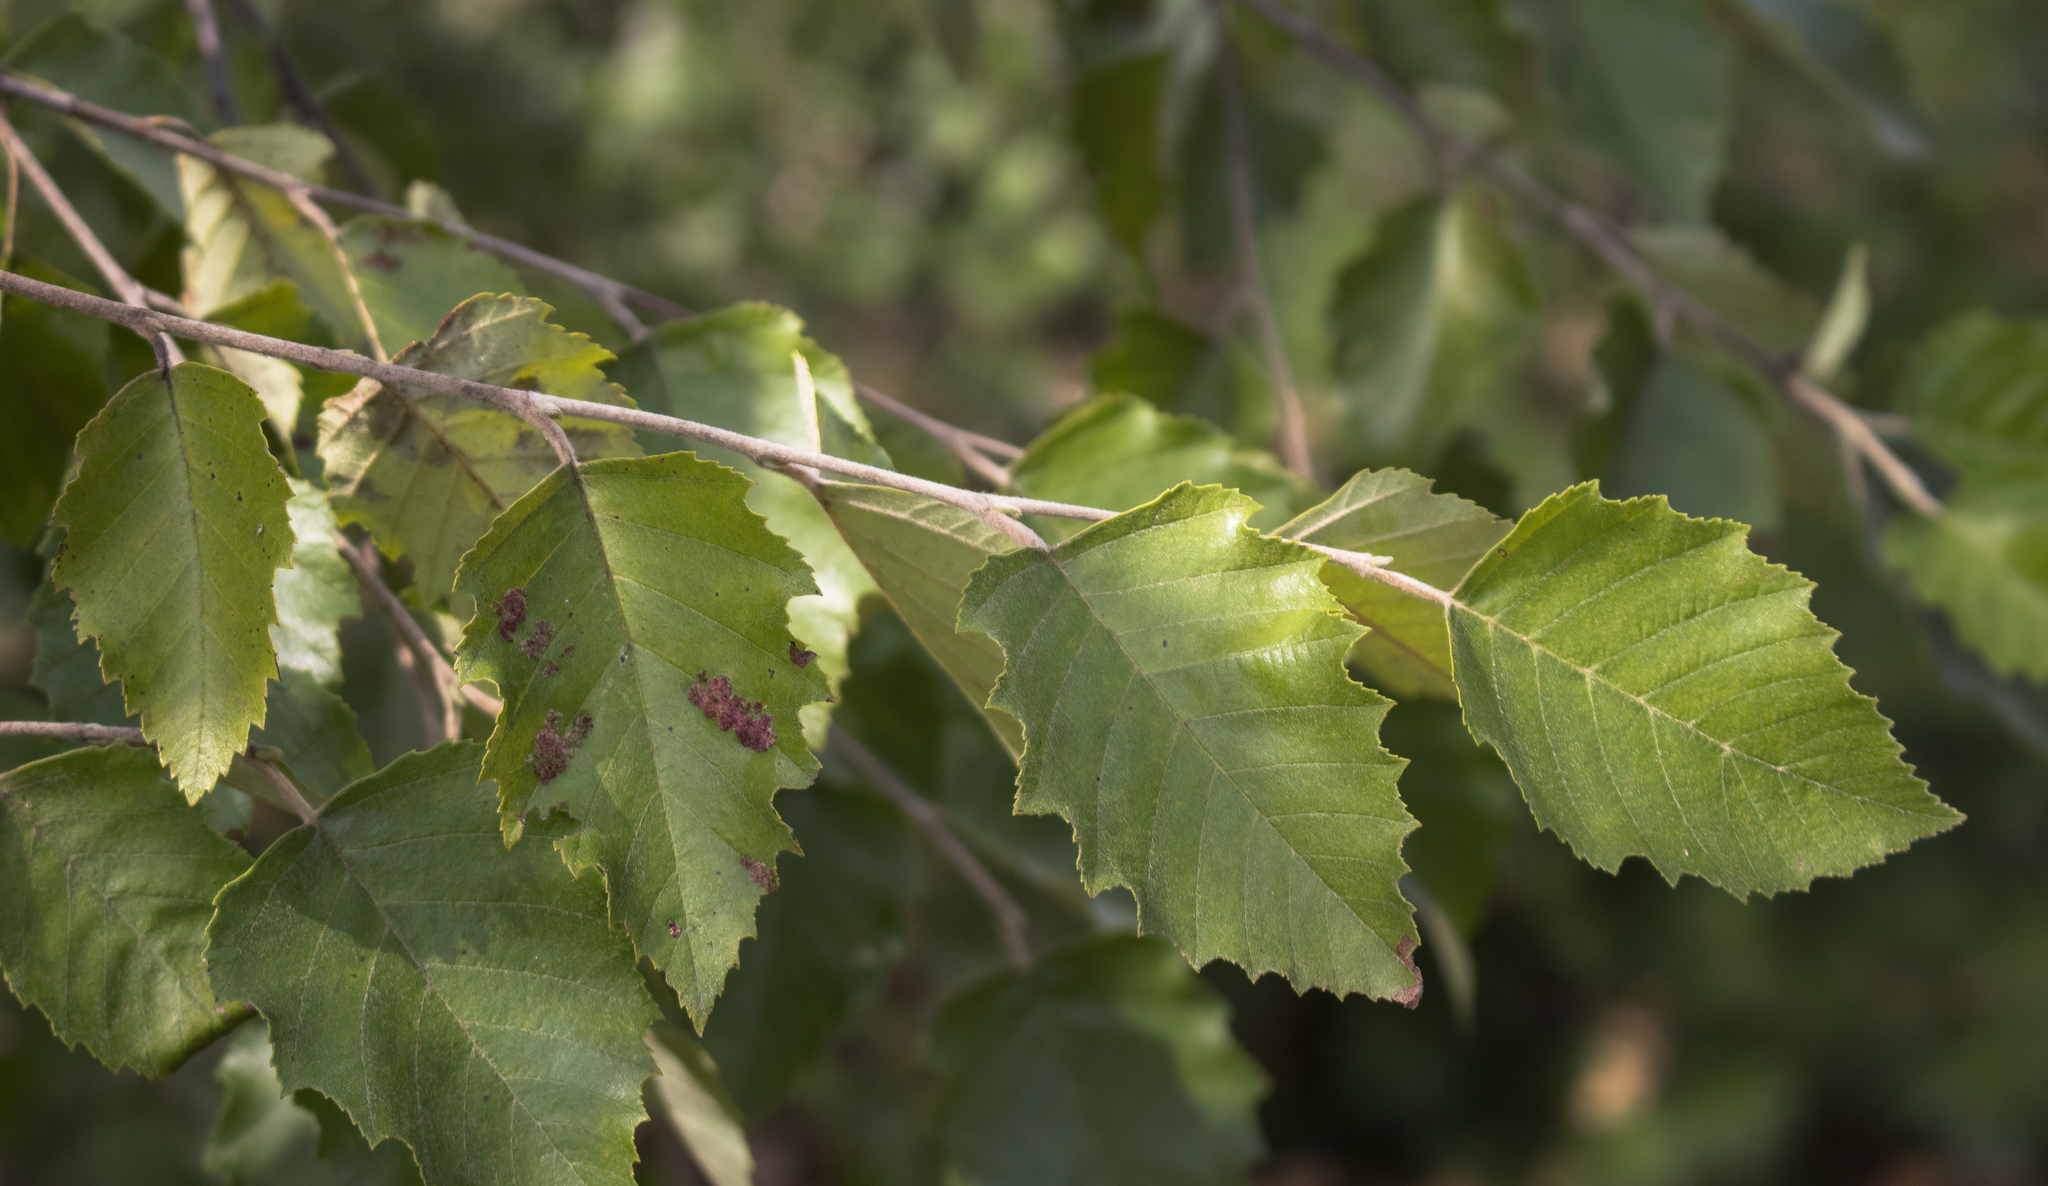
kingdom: Plantae
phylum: Tracheophyta
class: Magnoliopsida
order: Fagales
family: Betulaceae
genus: Betula
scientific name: Betula nigra
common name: Black birch
